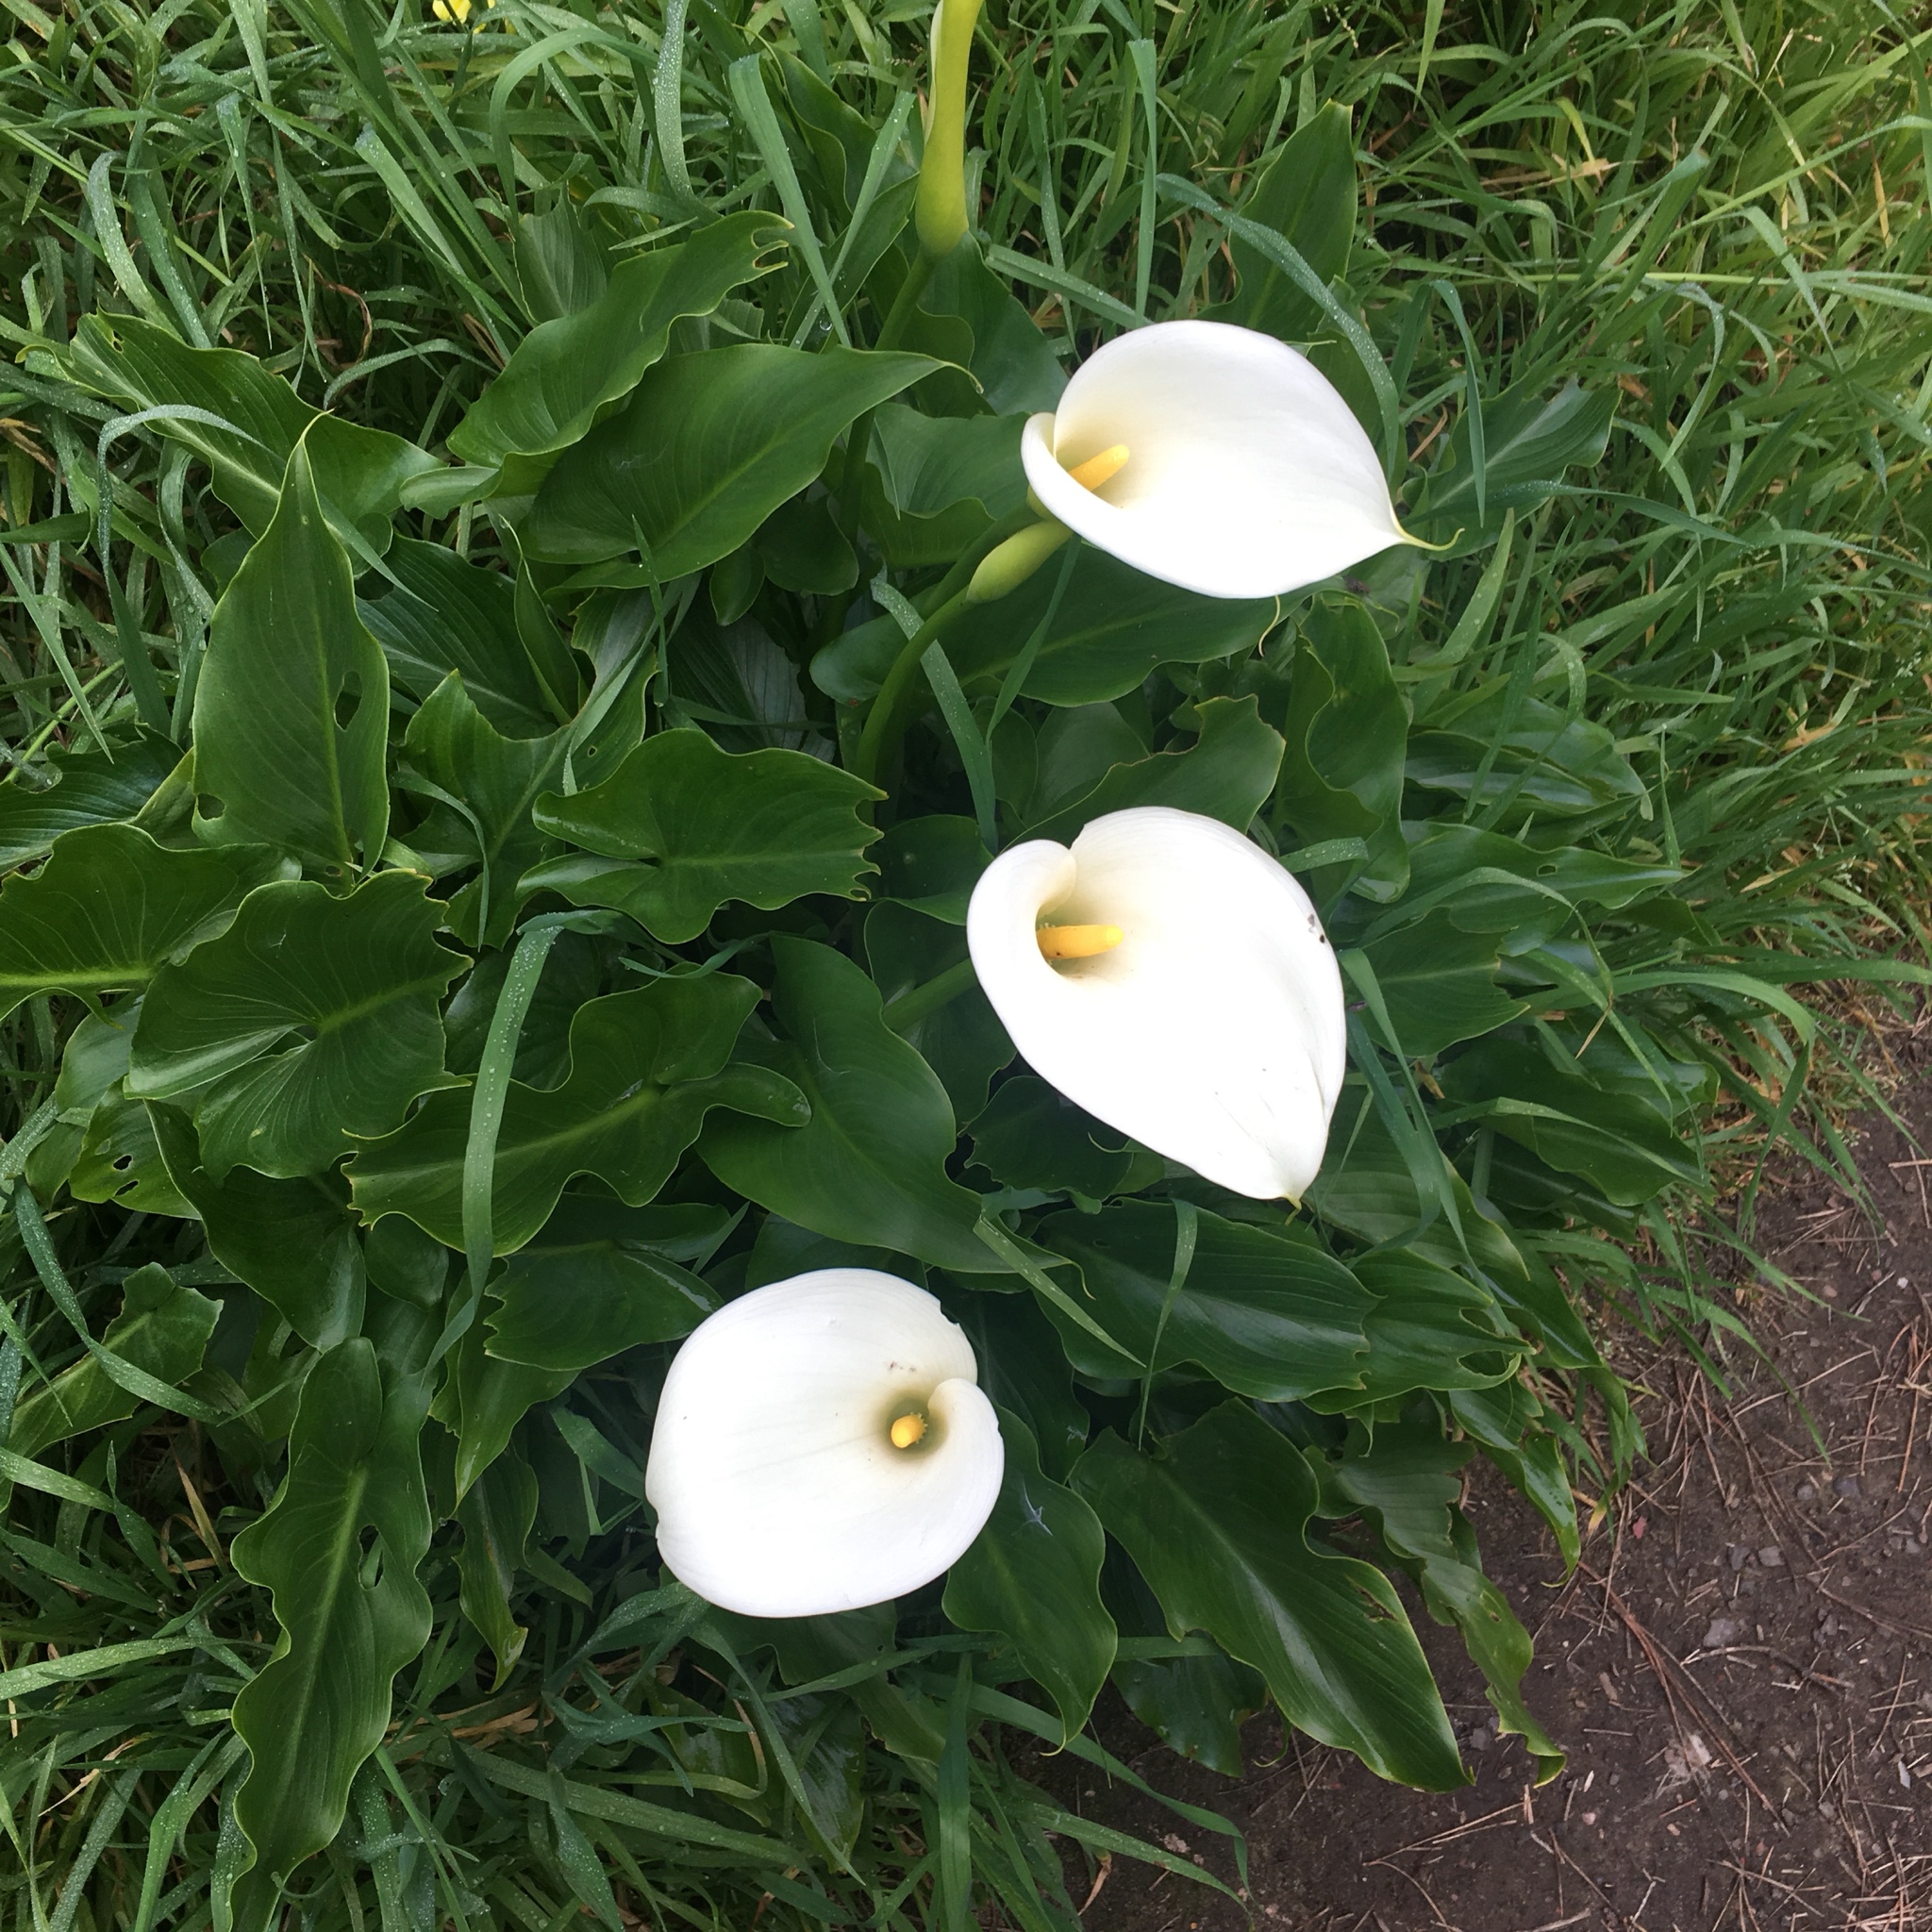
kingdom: Plantae
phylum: Tracheophyta
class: Liliopsida
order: Alismatales
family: Araceae
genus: Zantedeschia
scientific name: Zantedeschia aethiopica
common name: Altar-lily
